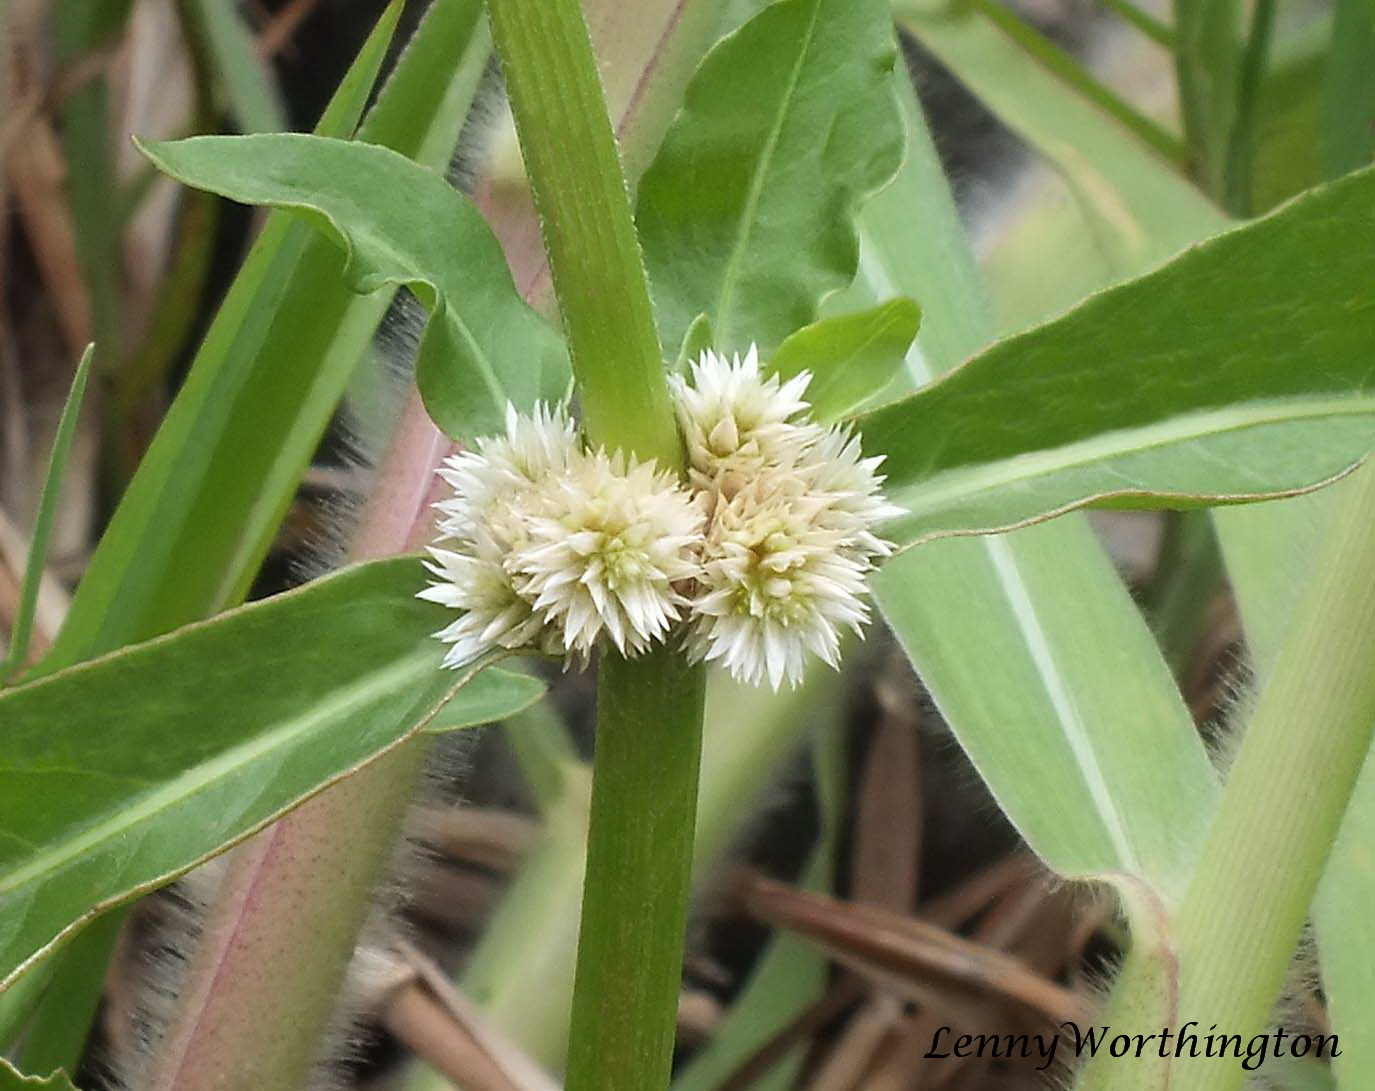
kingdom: Plantae
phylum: Tracheophyta
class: Magnoliopsida
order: Caryophyllales
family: Amaranthaceae
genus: Alternanthera
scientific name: Alternanthera sessilis
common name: Sessile joyweed
